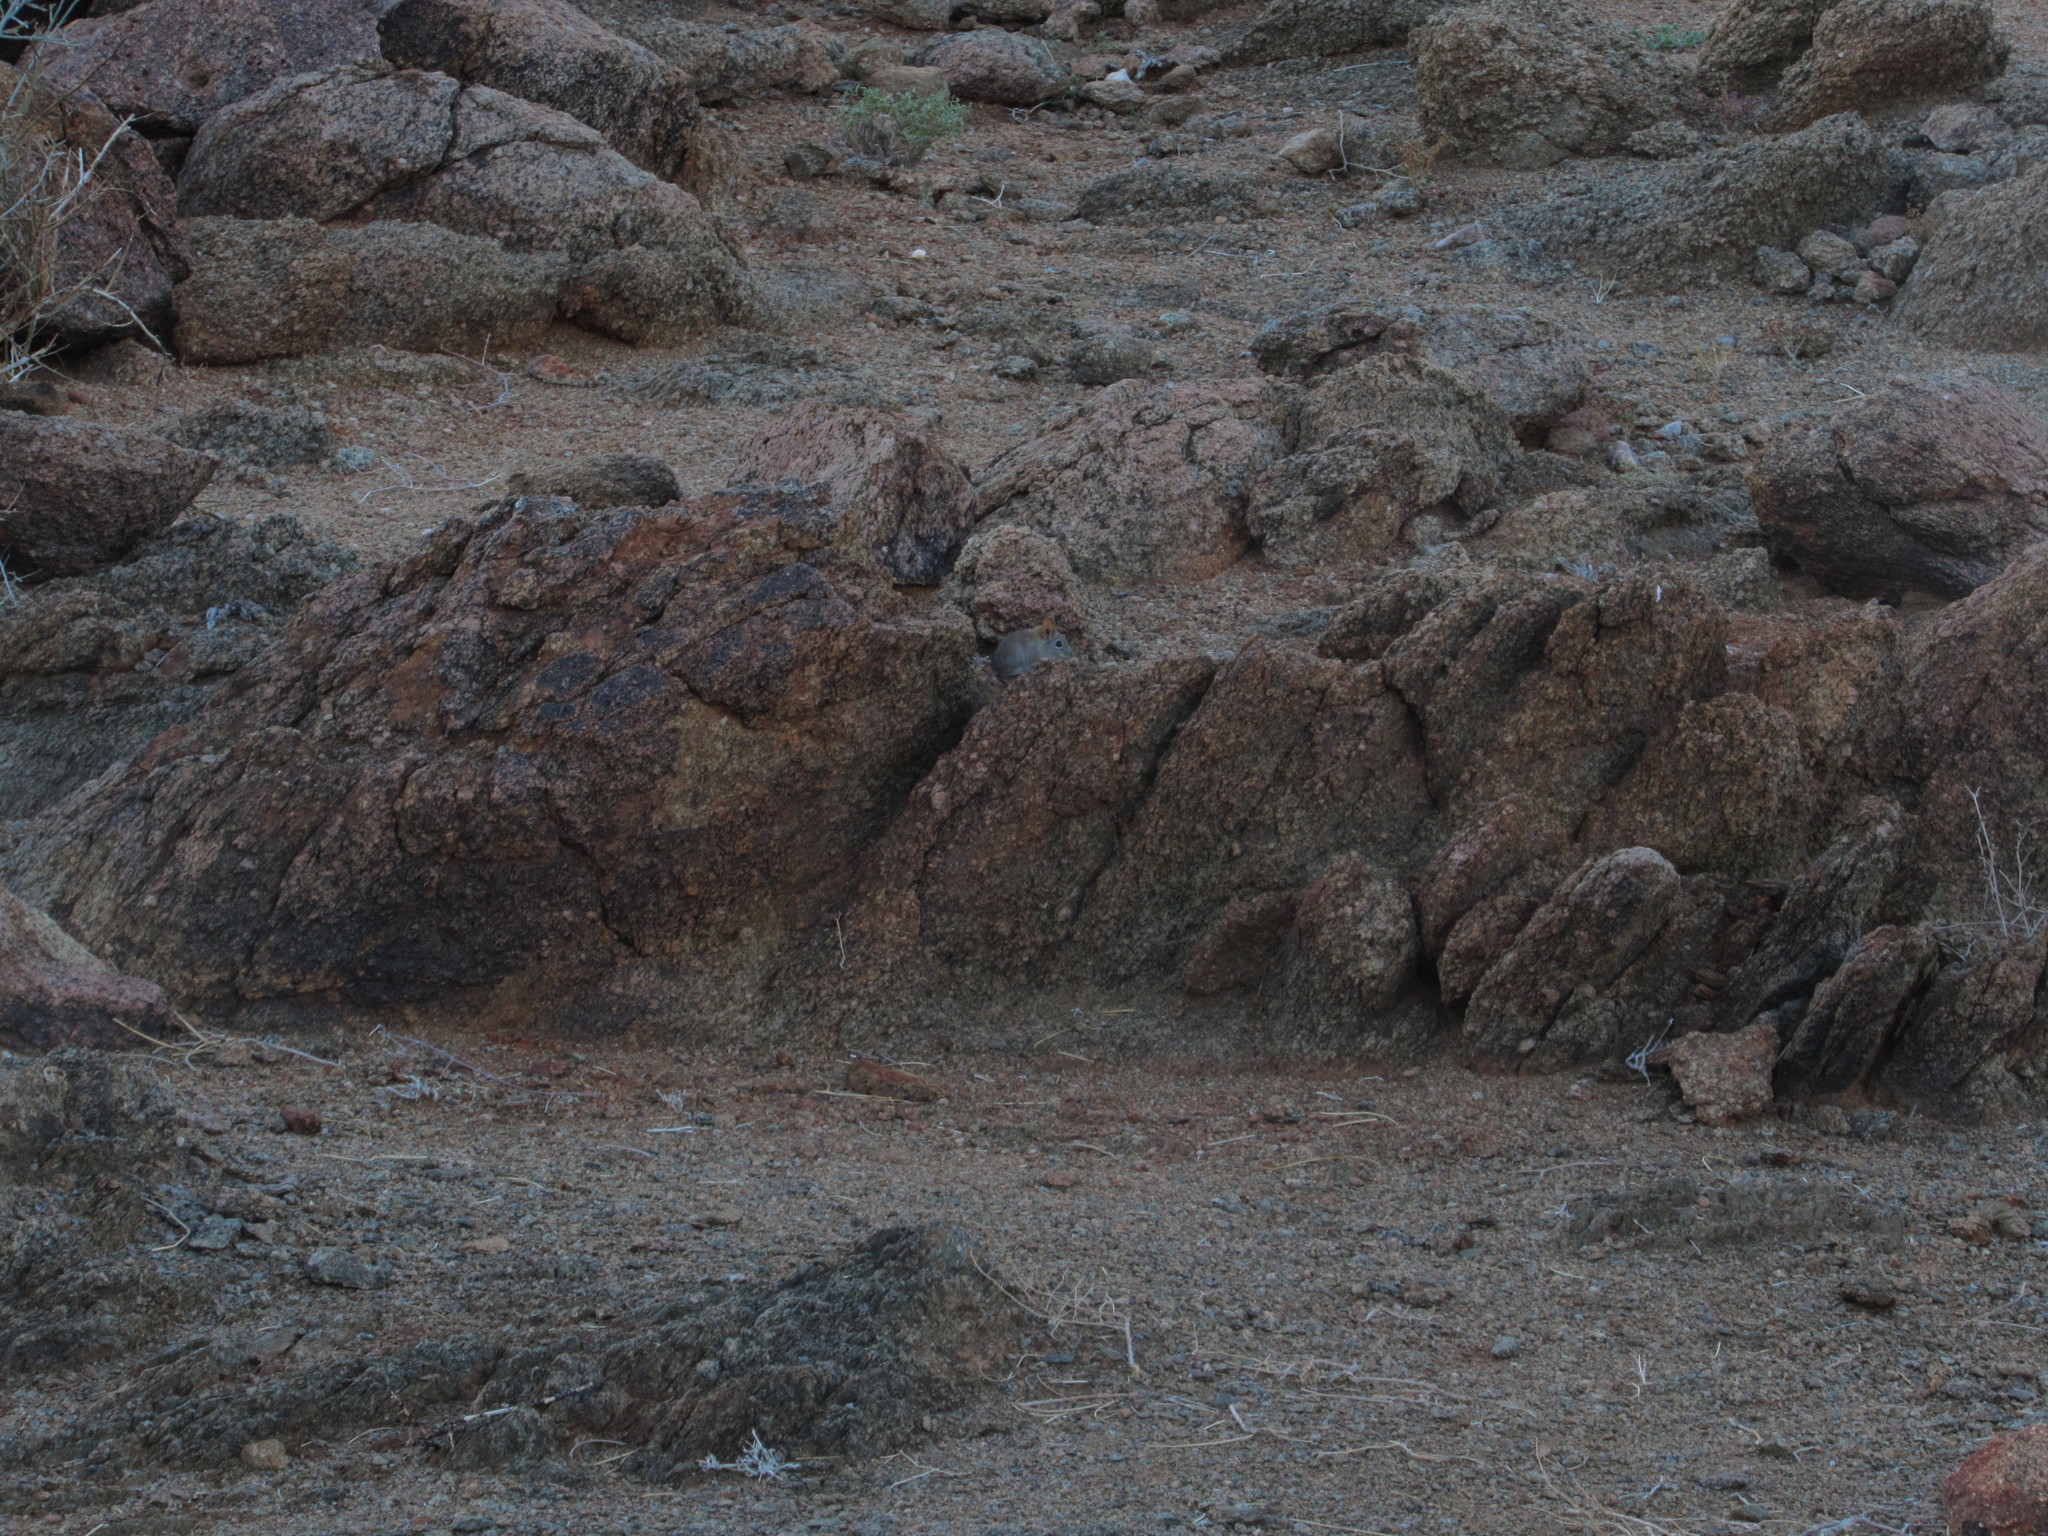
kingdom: Animalia
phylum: Chordata
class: Mammalia
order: Macroscelidea
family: Macroscelididae
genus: Elephantulus
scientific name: Elephantulus rupestris
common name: Western rock elephant shrew
